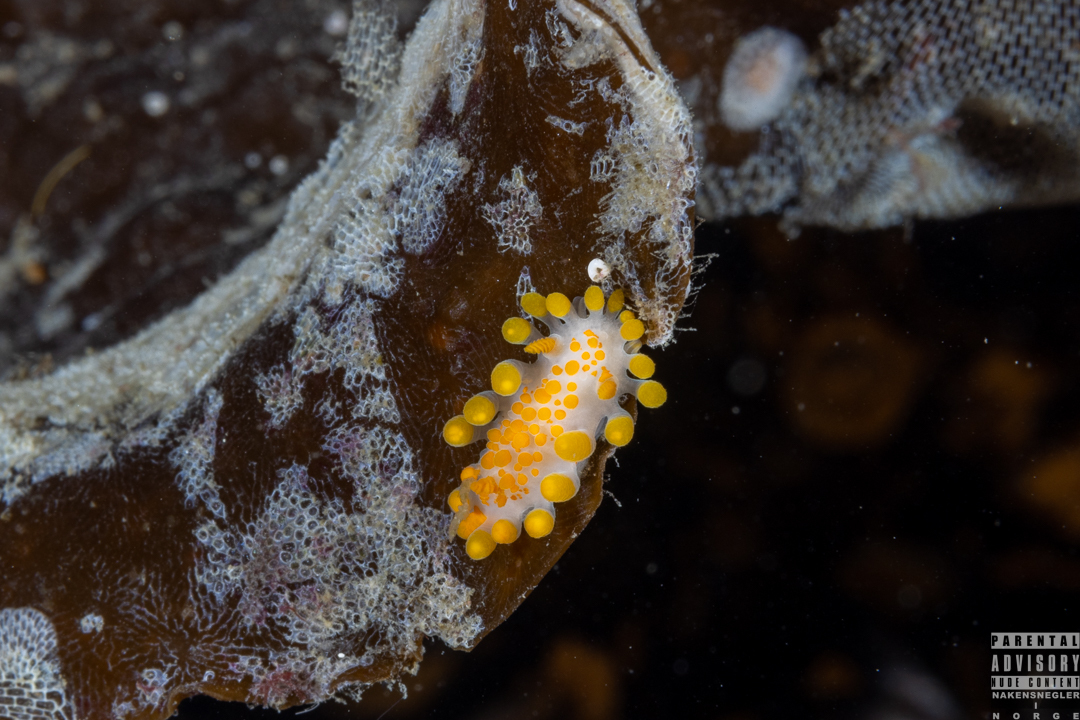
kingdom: Animalia
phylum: Mollusca
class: Gastropoda
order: Nudibranchia
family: Polyceridae
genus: Limacia
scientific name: Limacia clavigera
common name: Orange-clubbed sea slug
